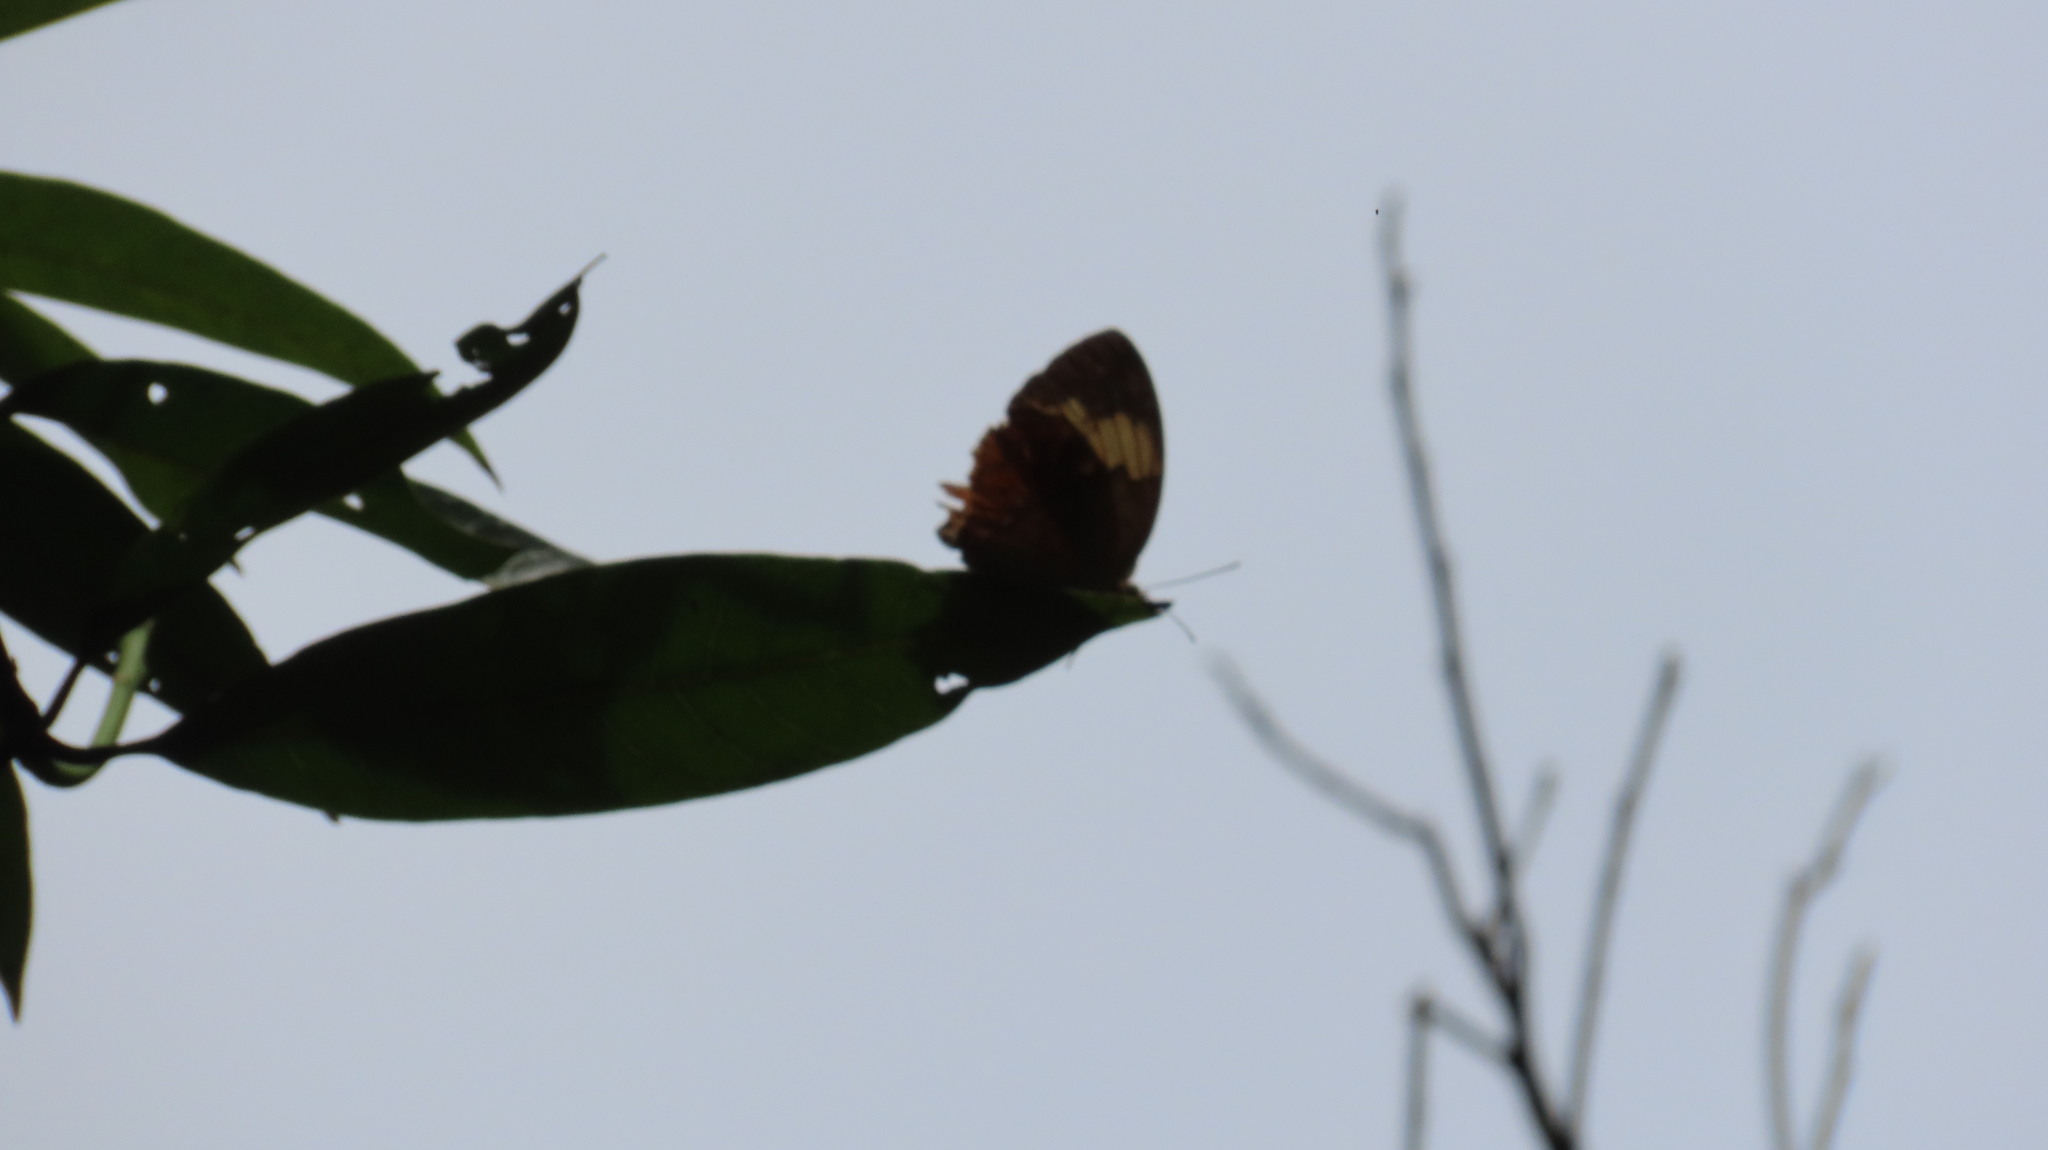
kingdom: Animalia
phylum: Arthropoda
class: Insecta
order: Lepidoptera
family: Nymphalidae
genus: Cupha
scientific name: Cupha erymanthis
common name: Rustic
